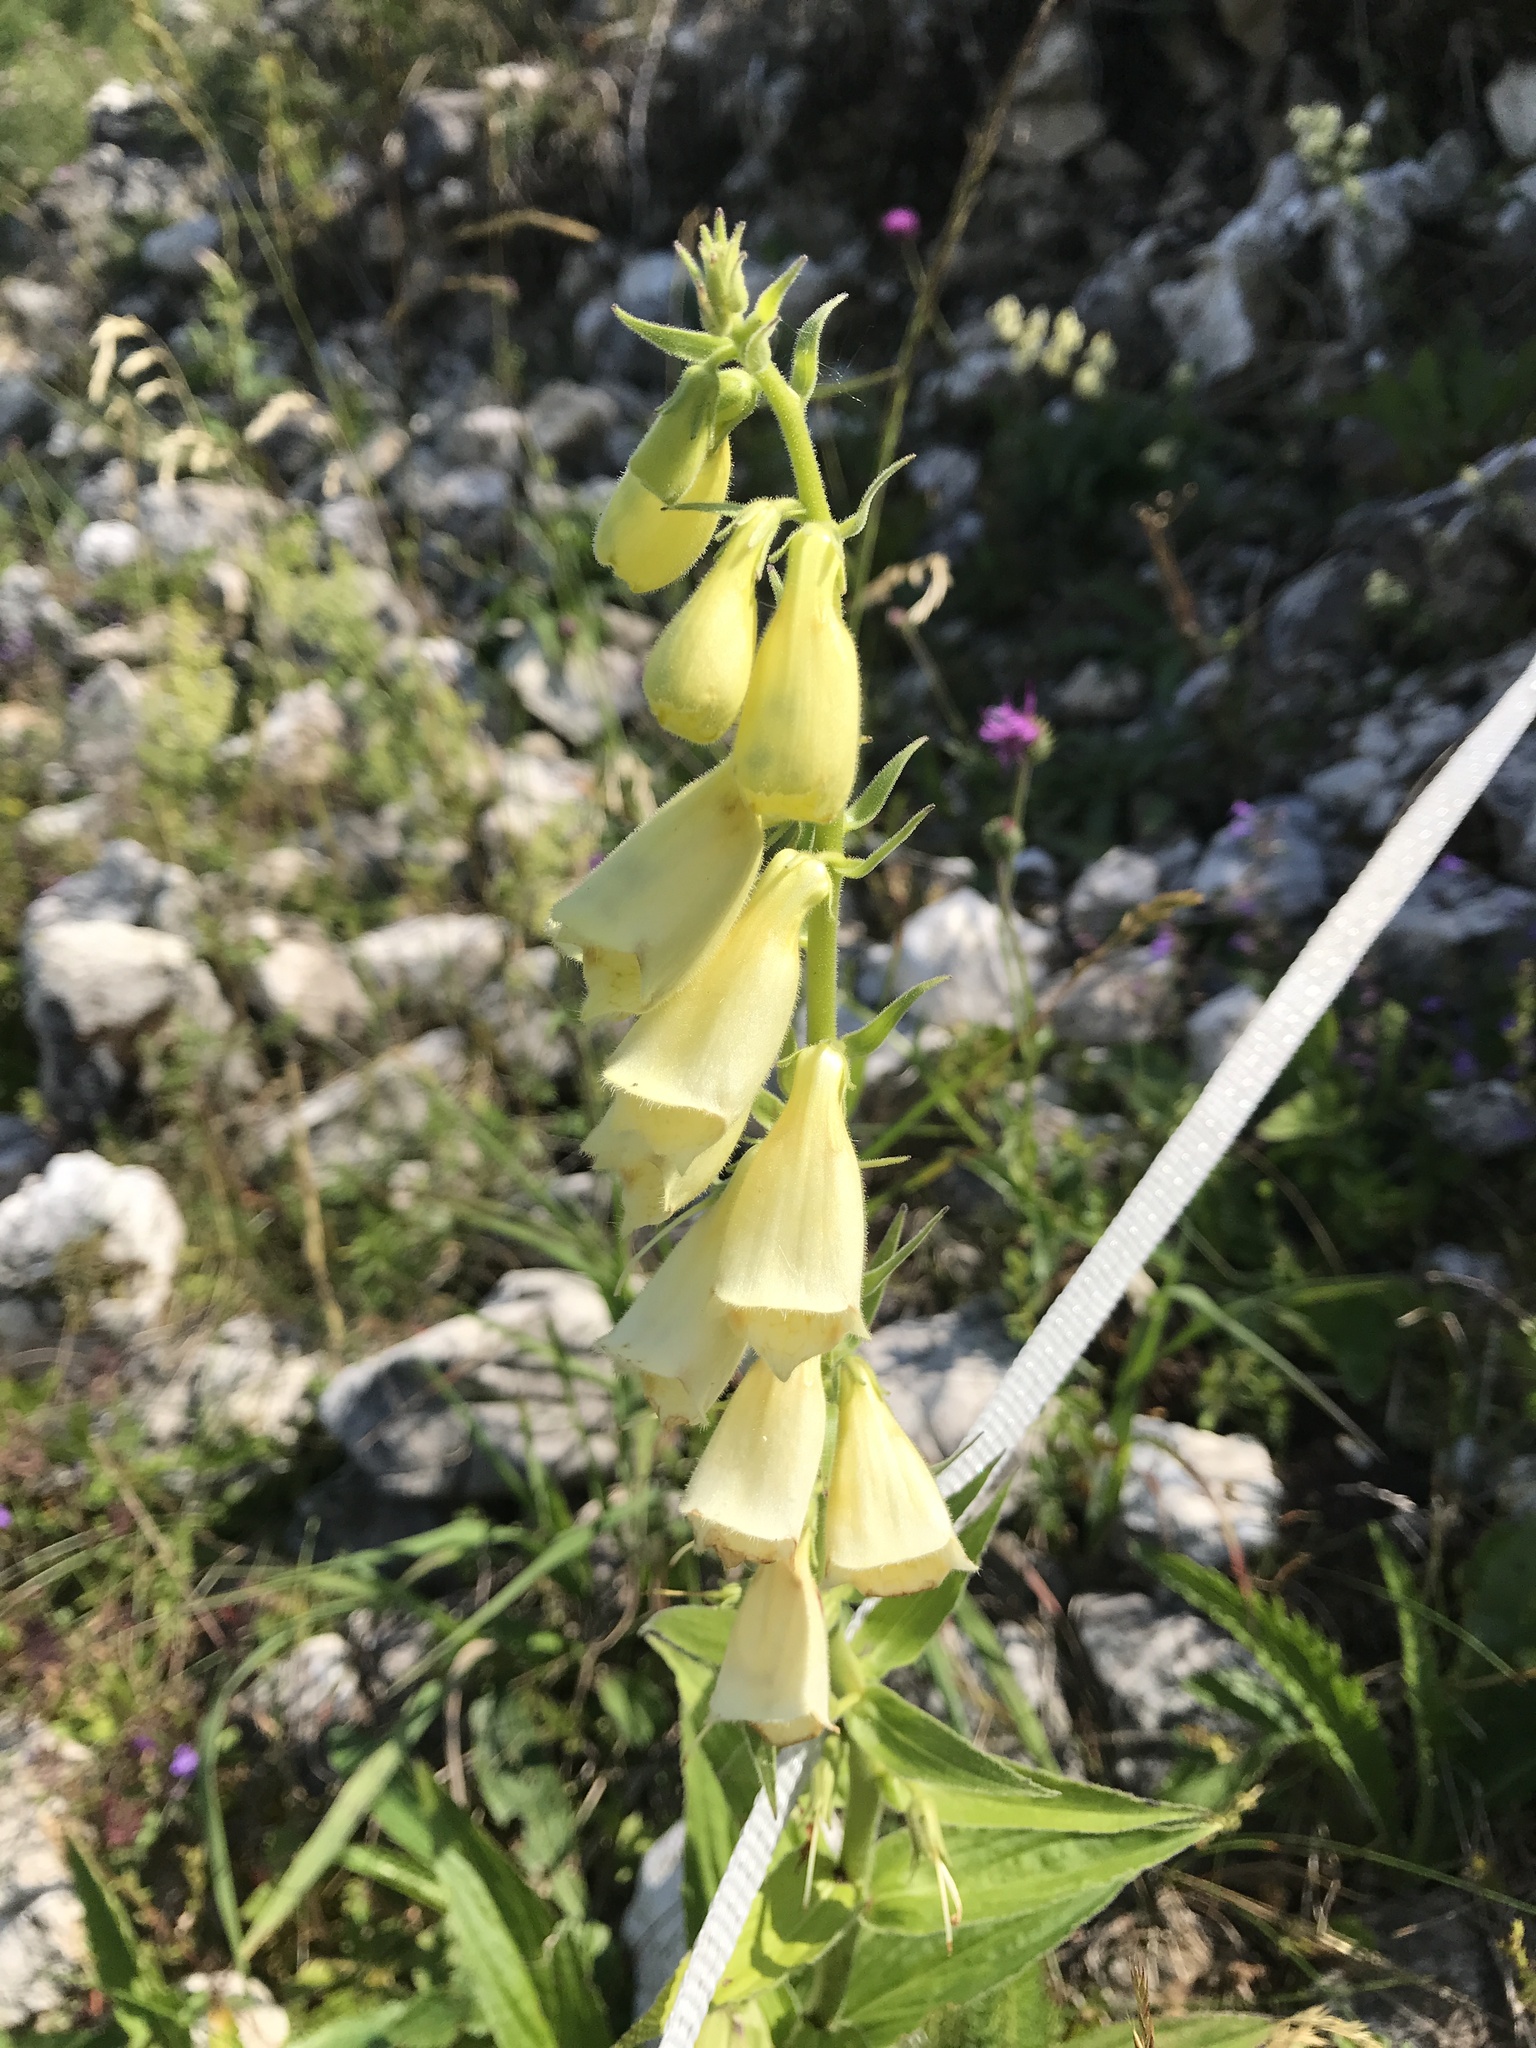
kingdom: Plantae
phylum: Tracheophyta
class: Magnoliopsida
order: Lamiales
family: Plantaginaceae
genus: Digitalis
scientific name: Digitalis grandiflora
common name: Yellow foxglove
